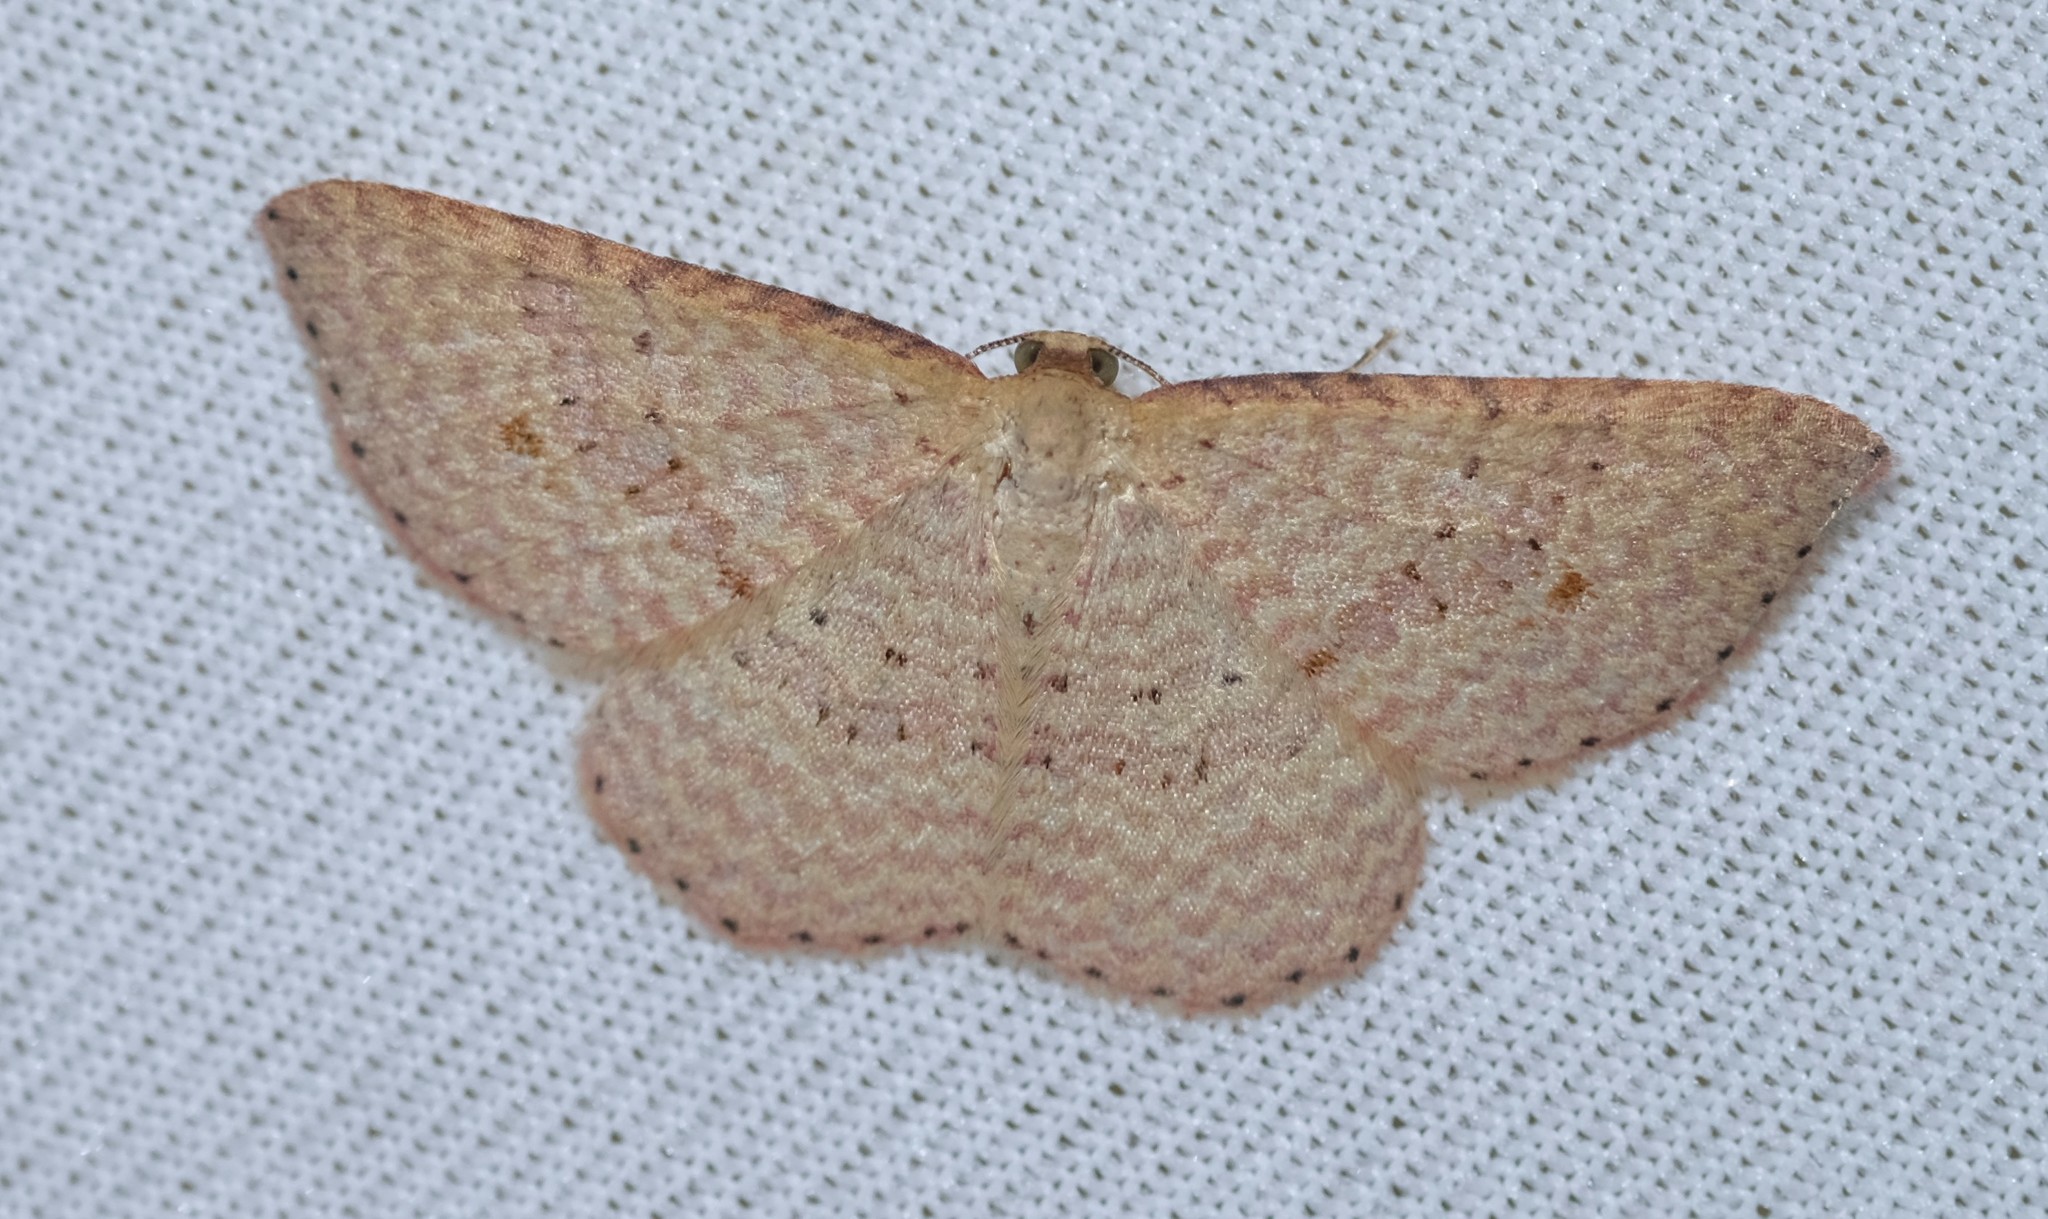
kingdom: Animalia
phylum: Arthropoda
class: Insecta
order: Lepidoptera
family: Geometridae
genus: Epicyme
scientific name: Epicyme rubropunctaria
